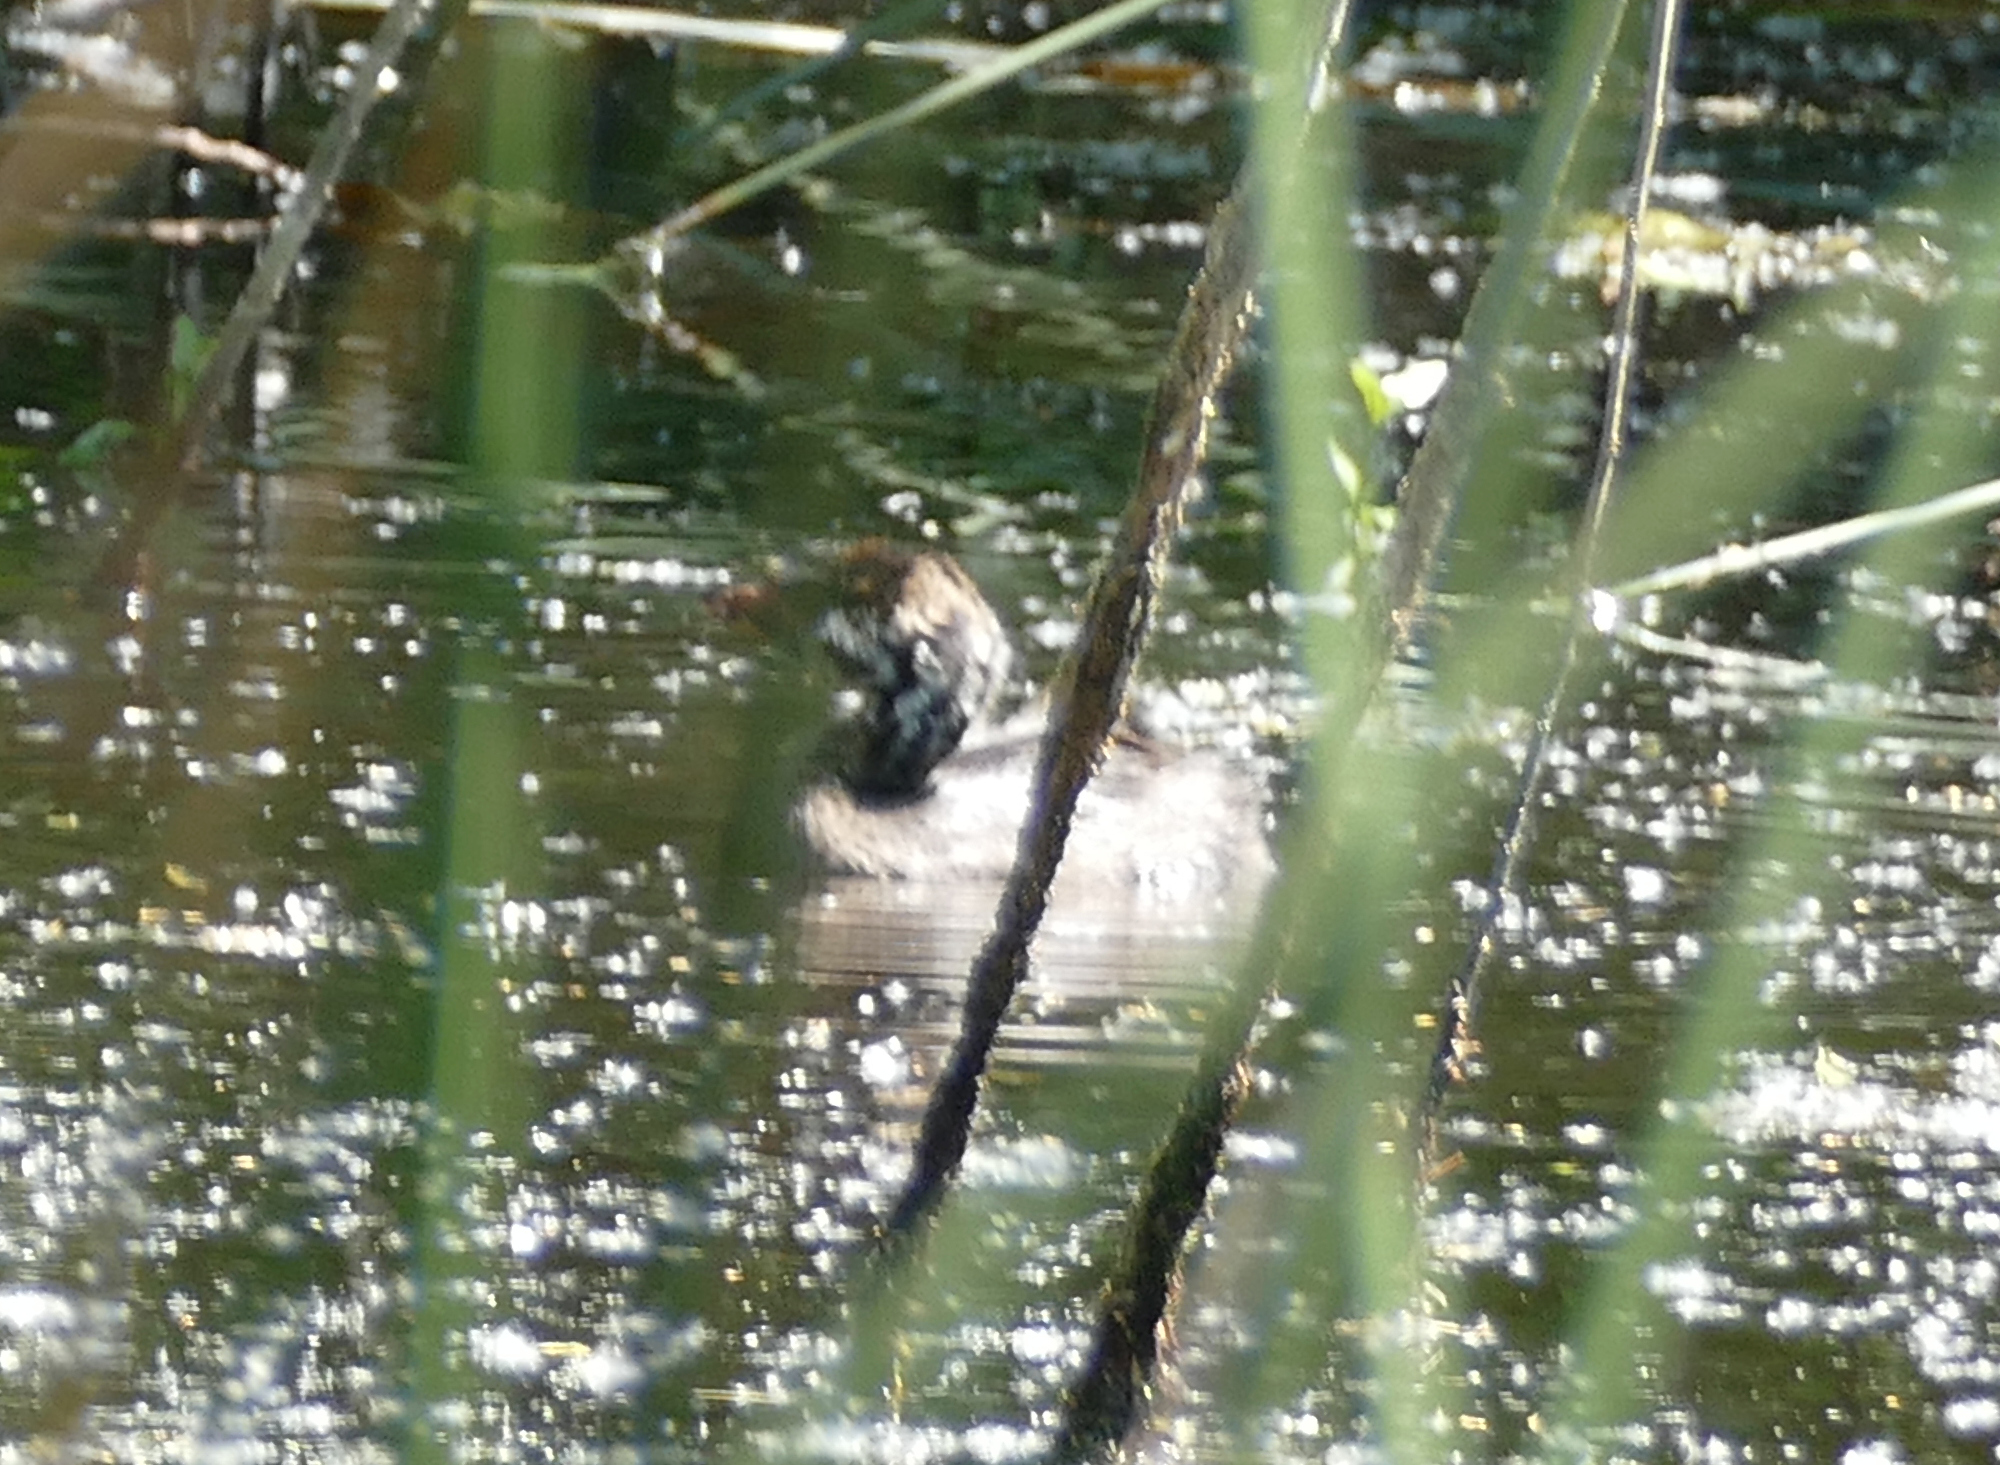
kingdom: Animalia
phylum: Chordata
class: Aves
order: Podicipediformes
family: Podicipedidae
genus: Podilymbus
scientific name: Podilymbus podiceps
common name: Pied-billed grebe
